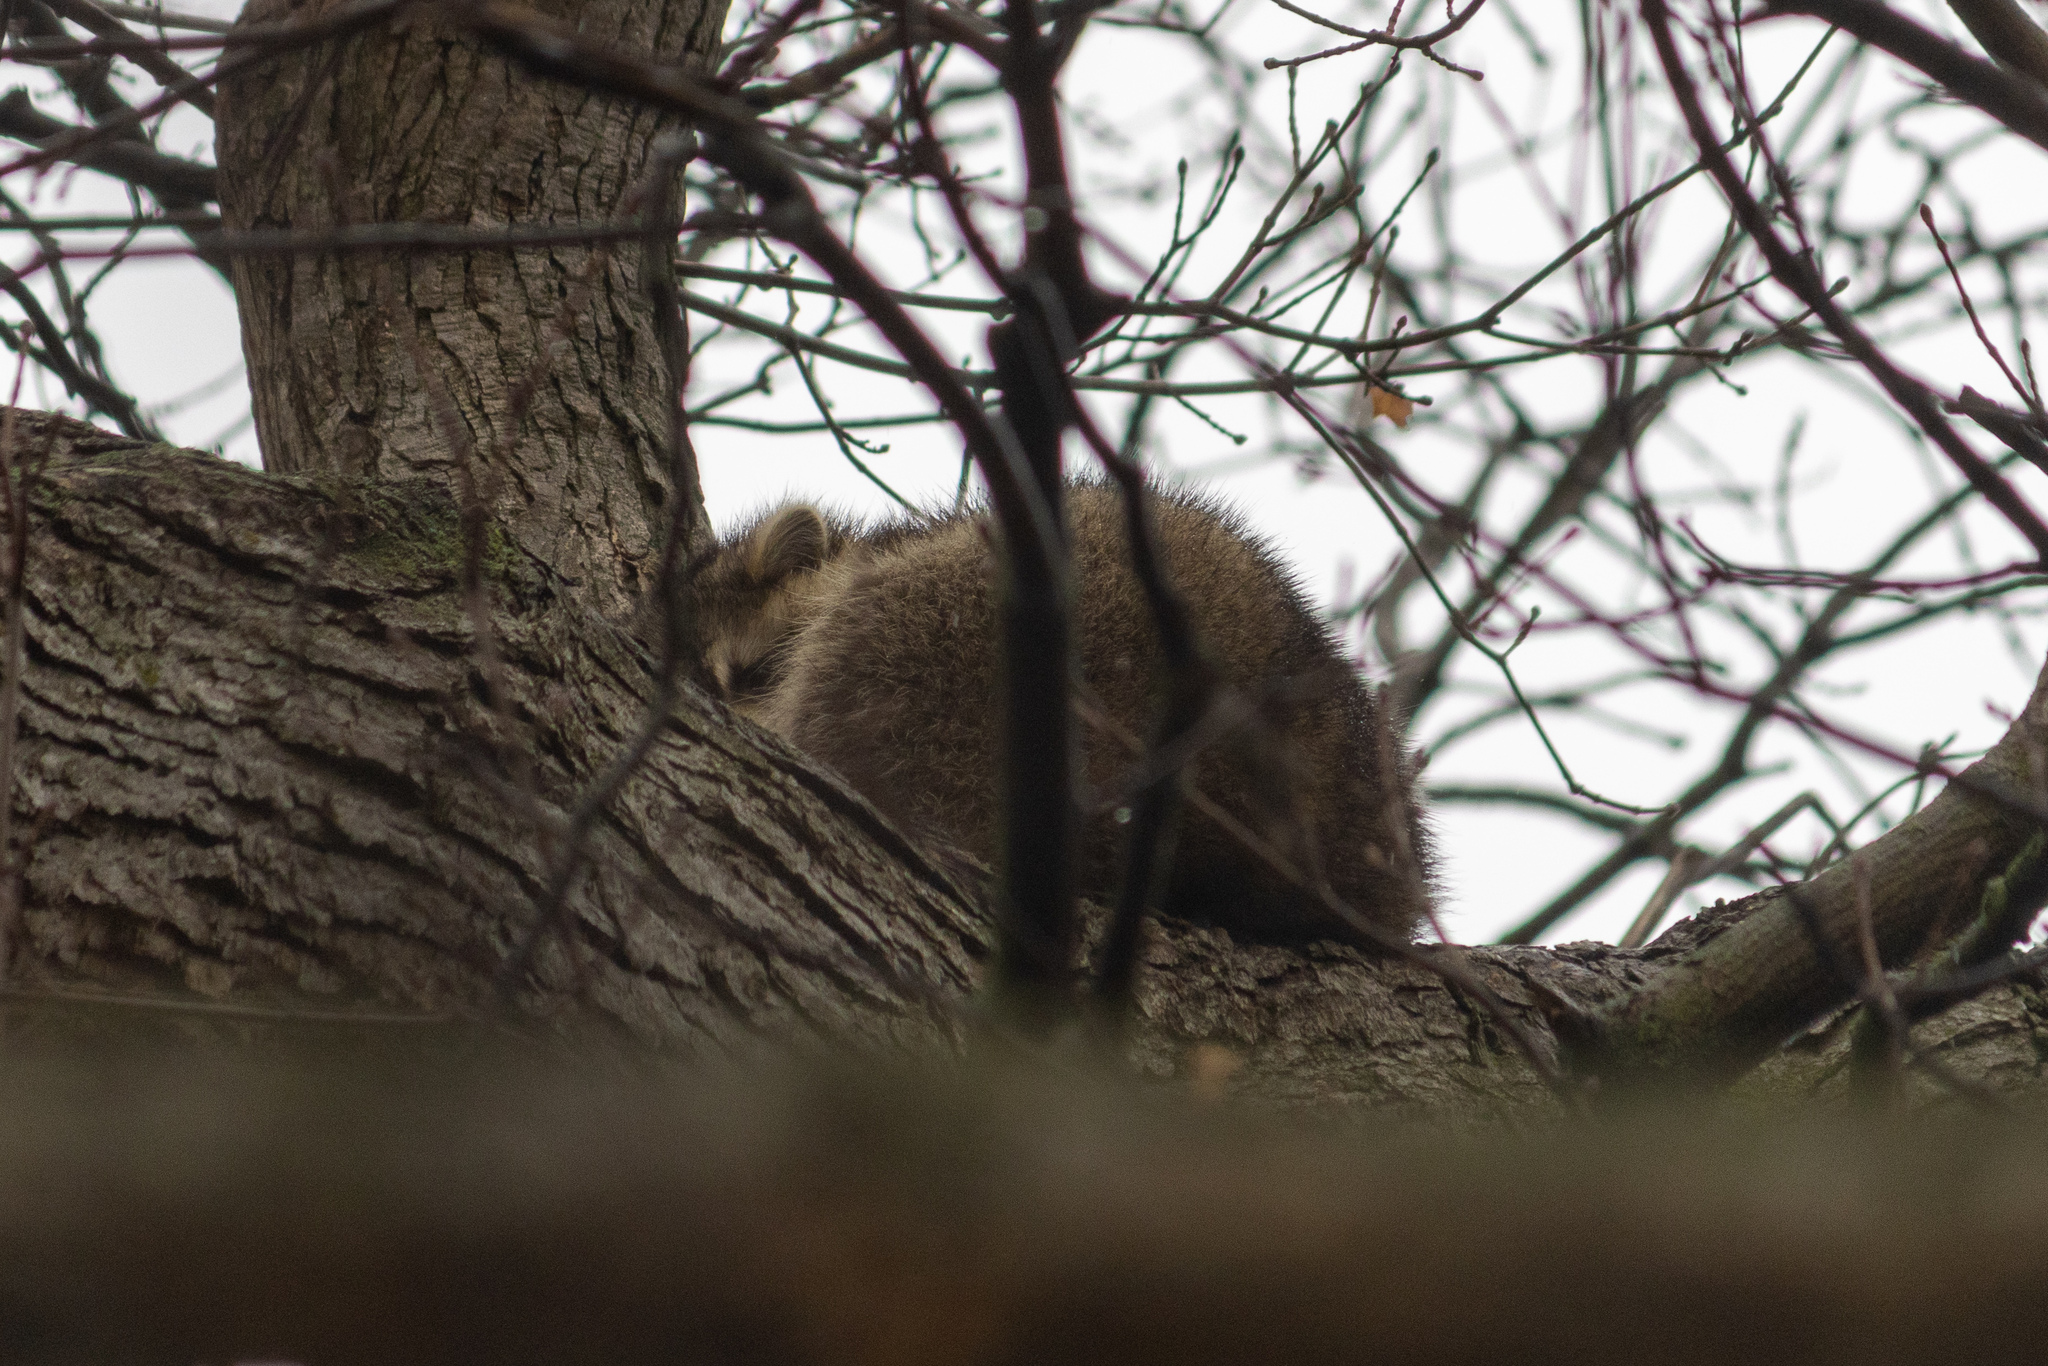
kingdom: Animalia
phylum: Chordata
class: Mammalia
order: Carnivora
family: Procyonidae
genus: Procyon
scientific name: Procyon lotor
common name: Raccoon
